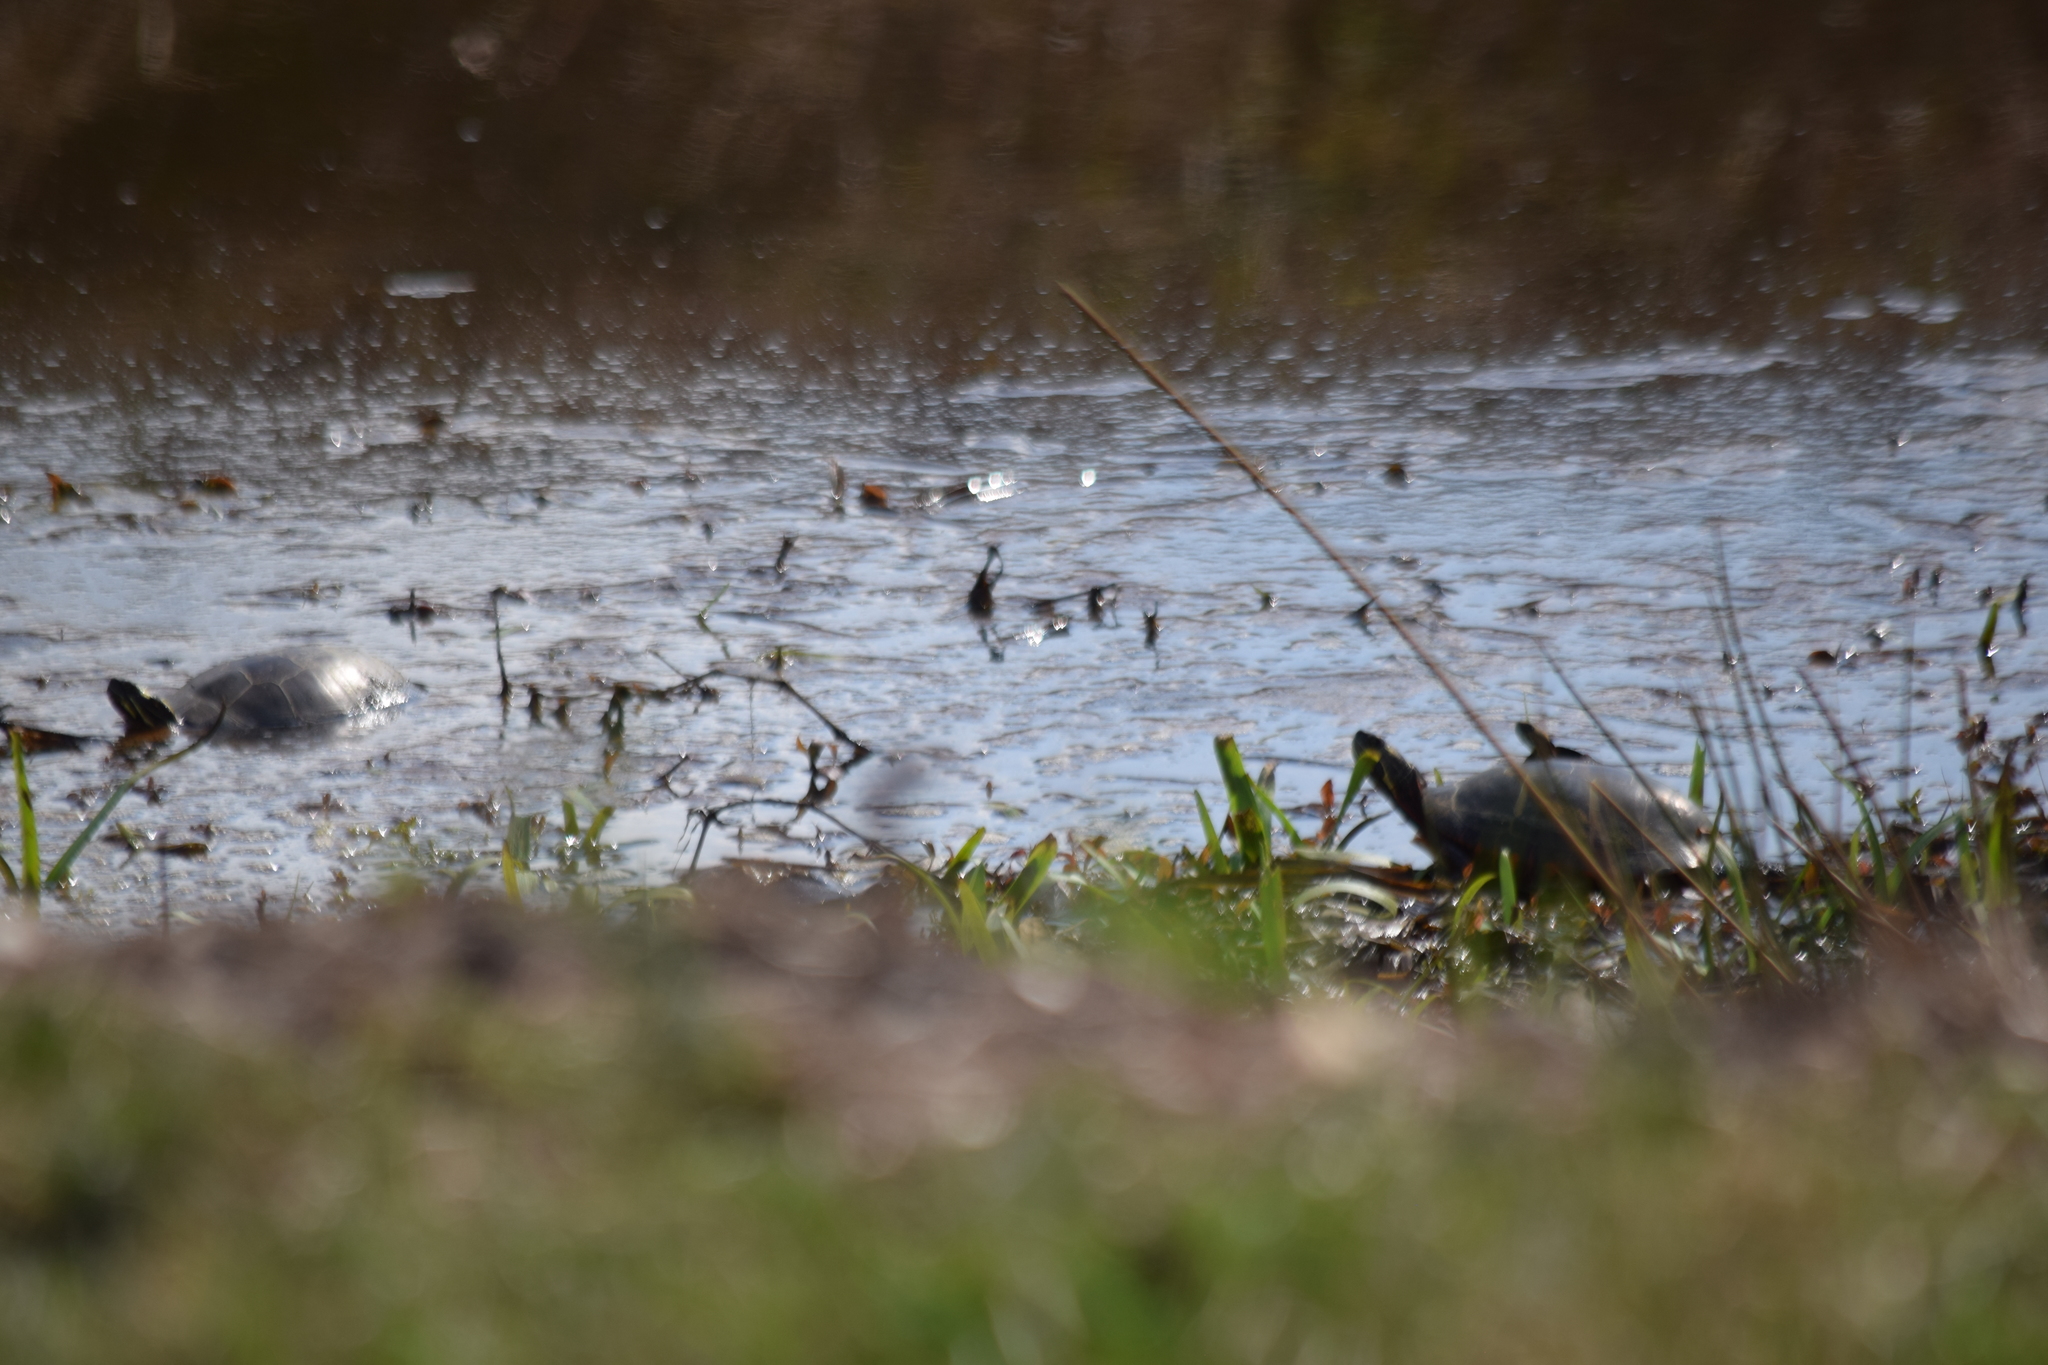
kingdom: Animalia
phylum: Chordata
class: Testudines
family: Emydidae
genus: Chrysemys
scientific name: Chrysemys picta
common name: Painted turtle
